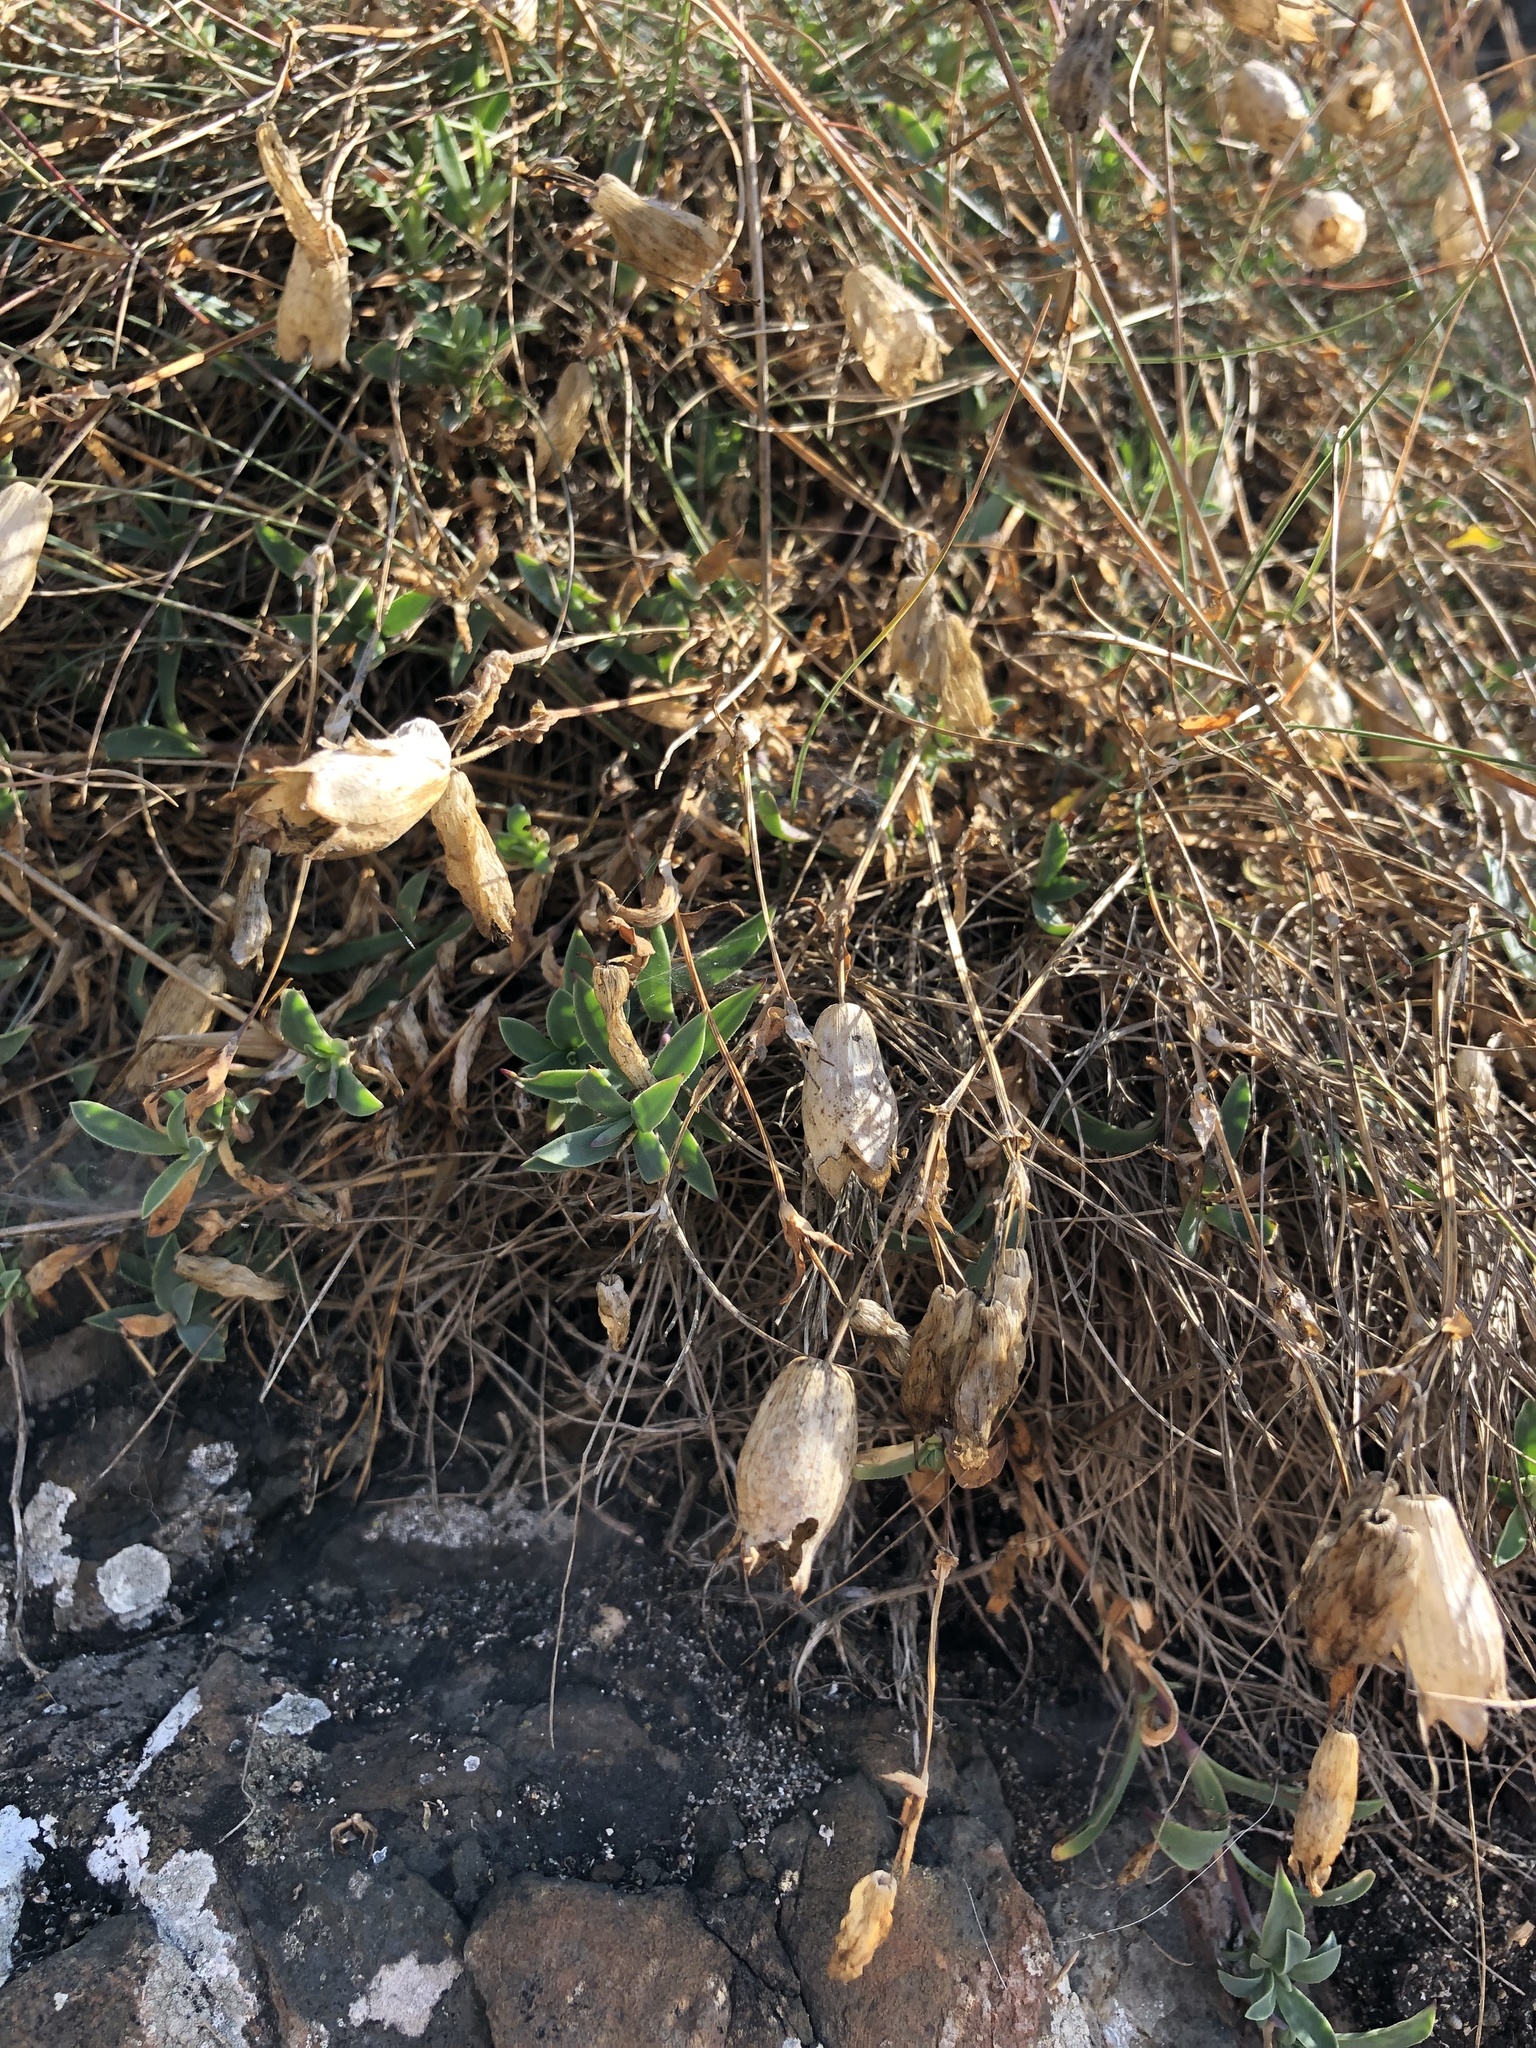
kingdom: Plantae
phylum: Tracheophyta
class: Magnoliopsida
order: Caryophyllales
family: Caryophyllaceae
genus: Silene
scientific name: Silene uniflora
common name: Sea campion
